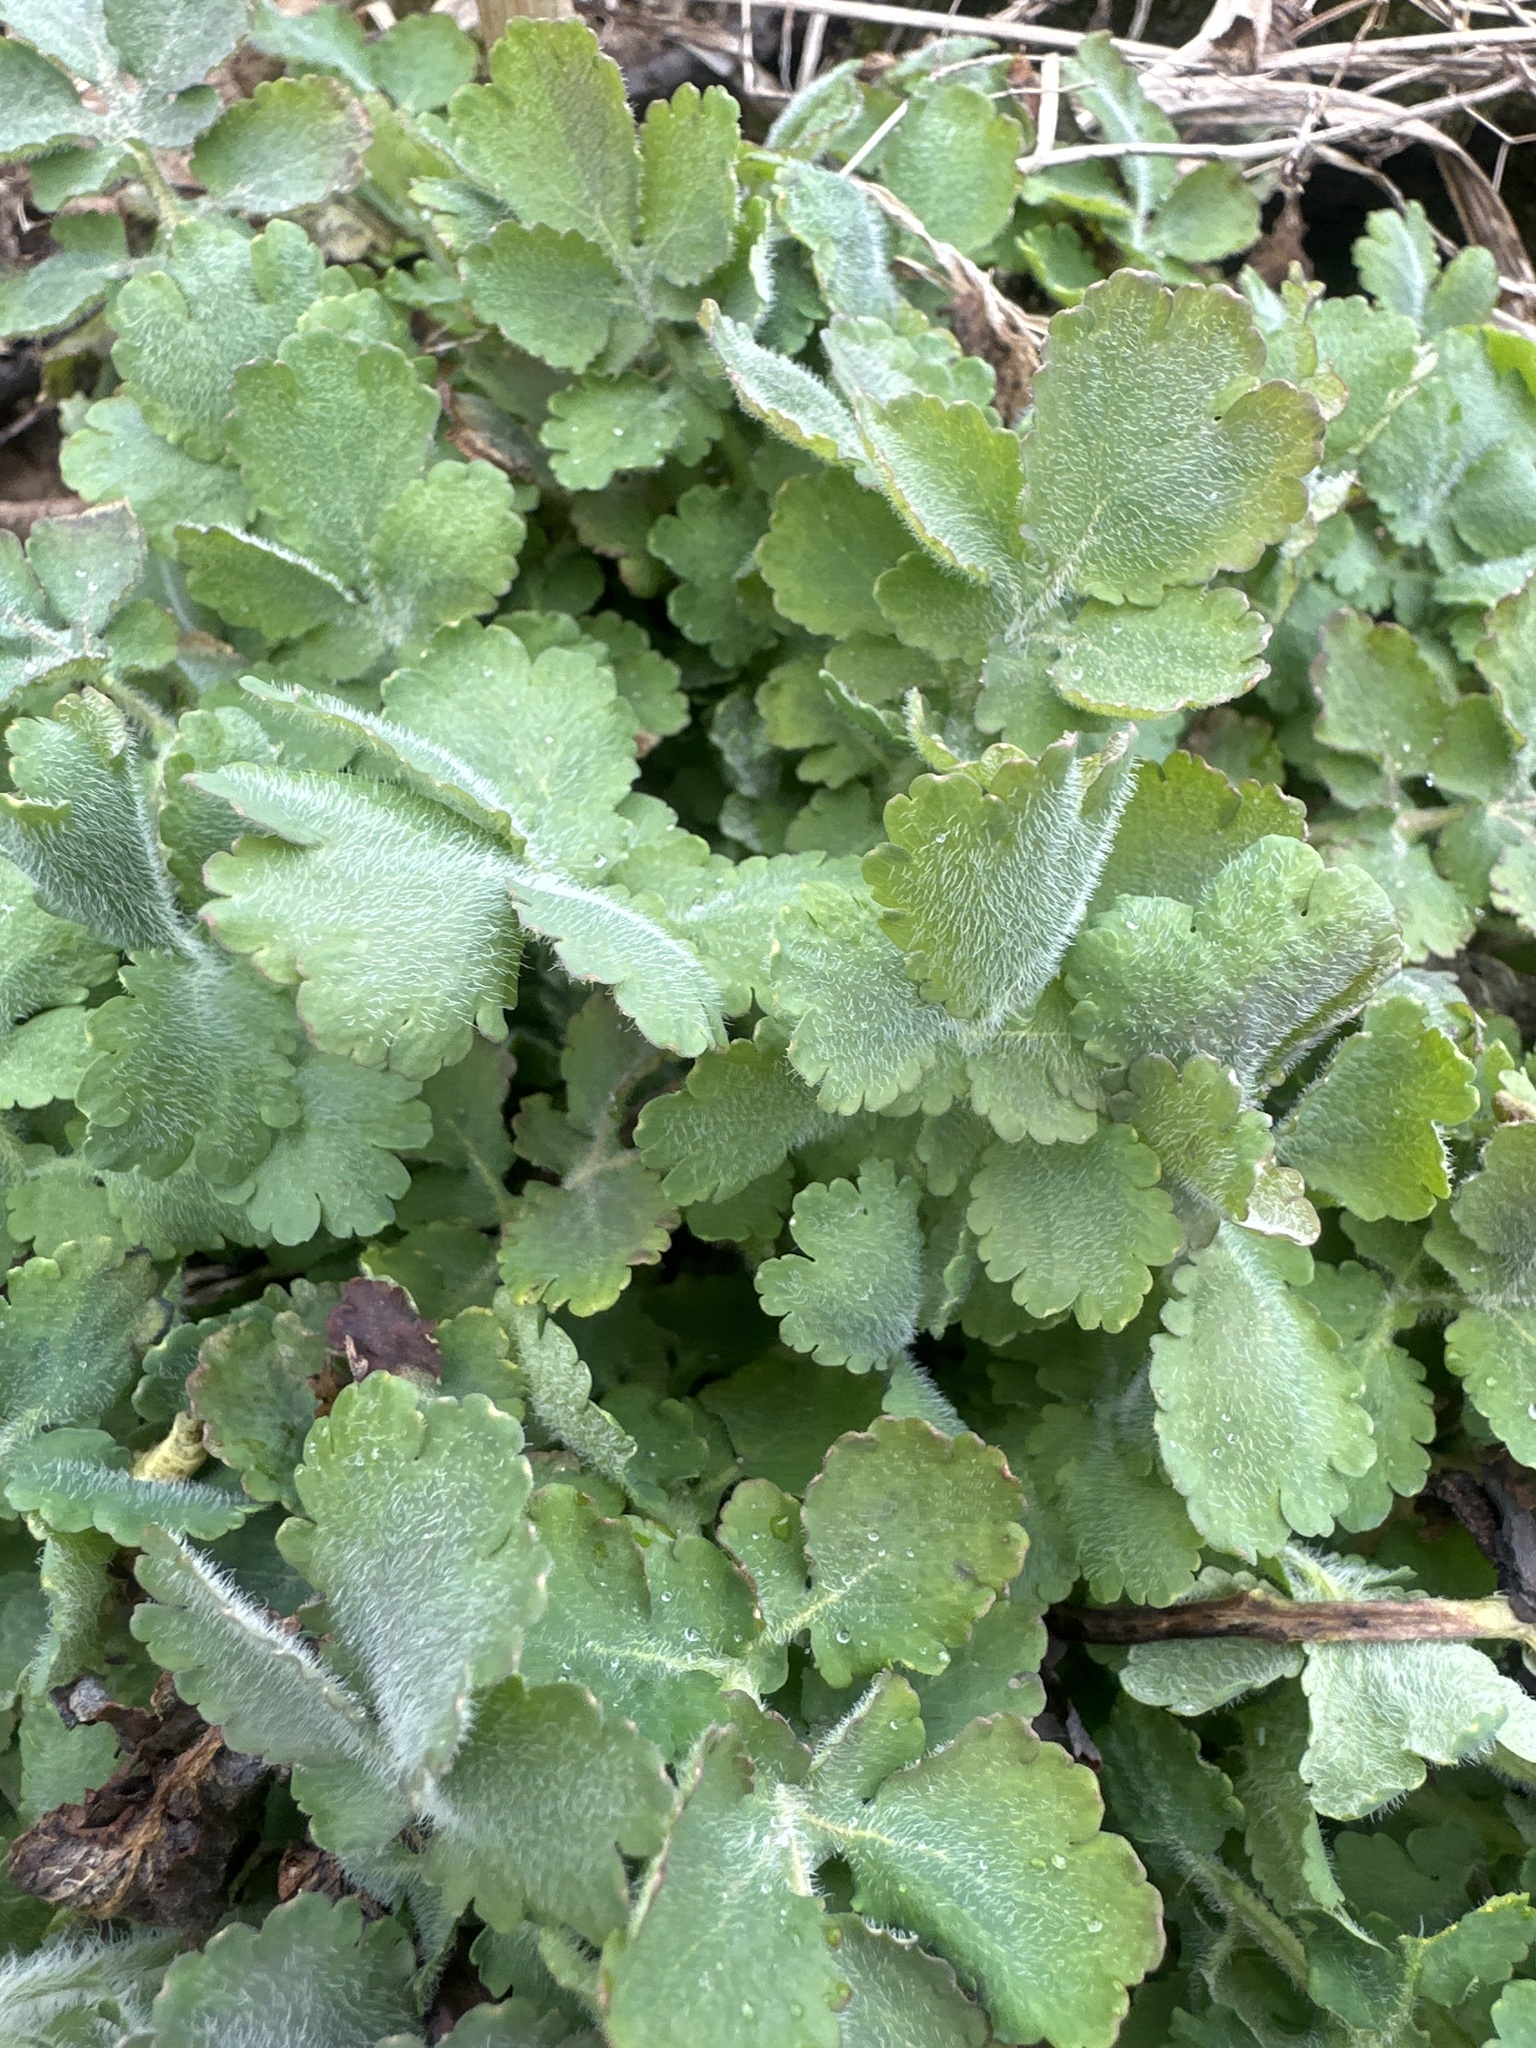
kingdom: Plantae
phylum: Tracheophyta
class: Magnoliopsida
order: Ranunculales
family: Papaveraceae
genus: Chelidonium
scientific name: Chelidonium majus
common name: Greater celandine
